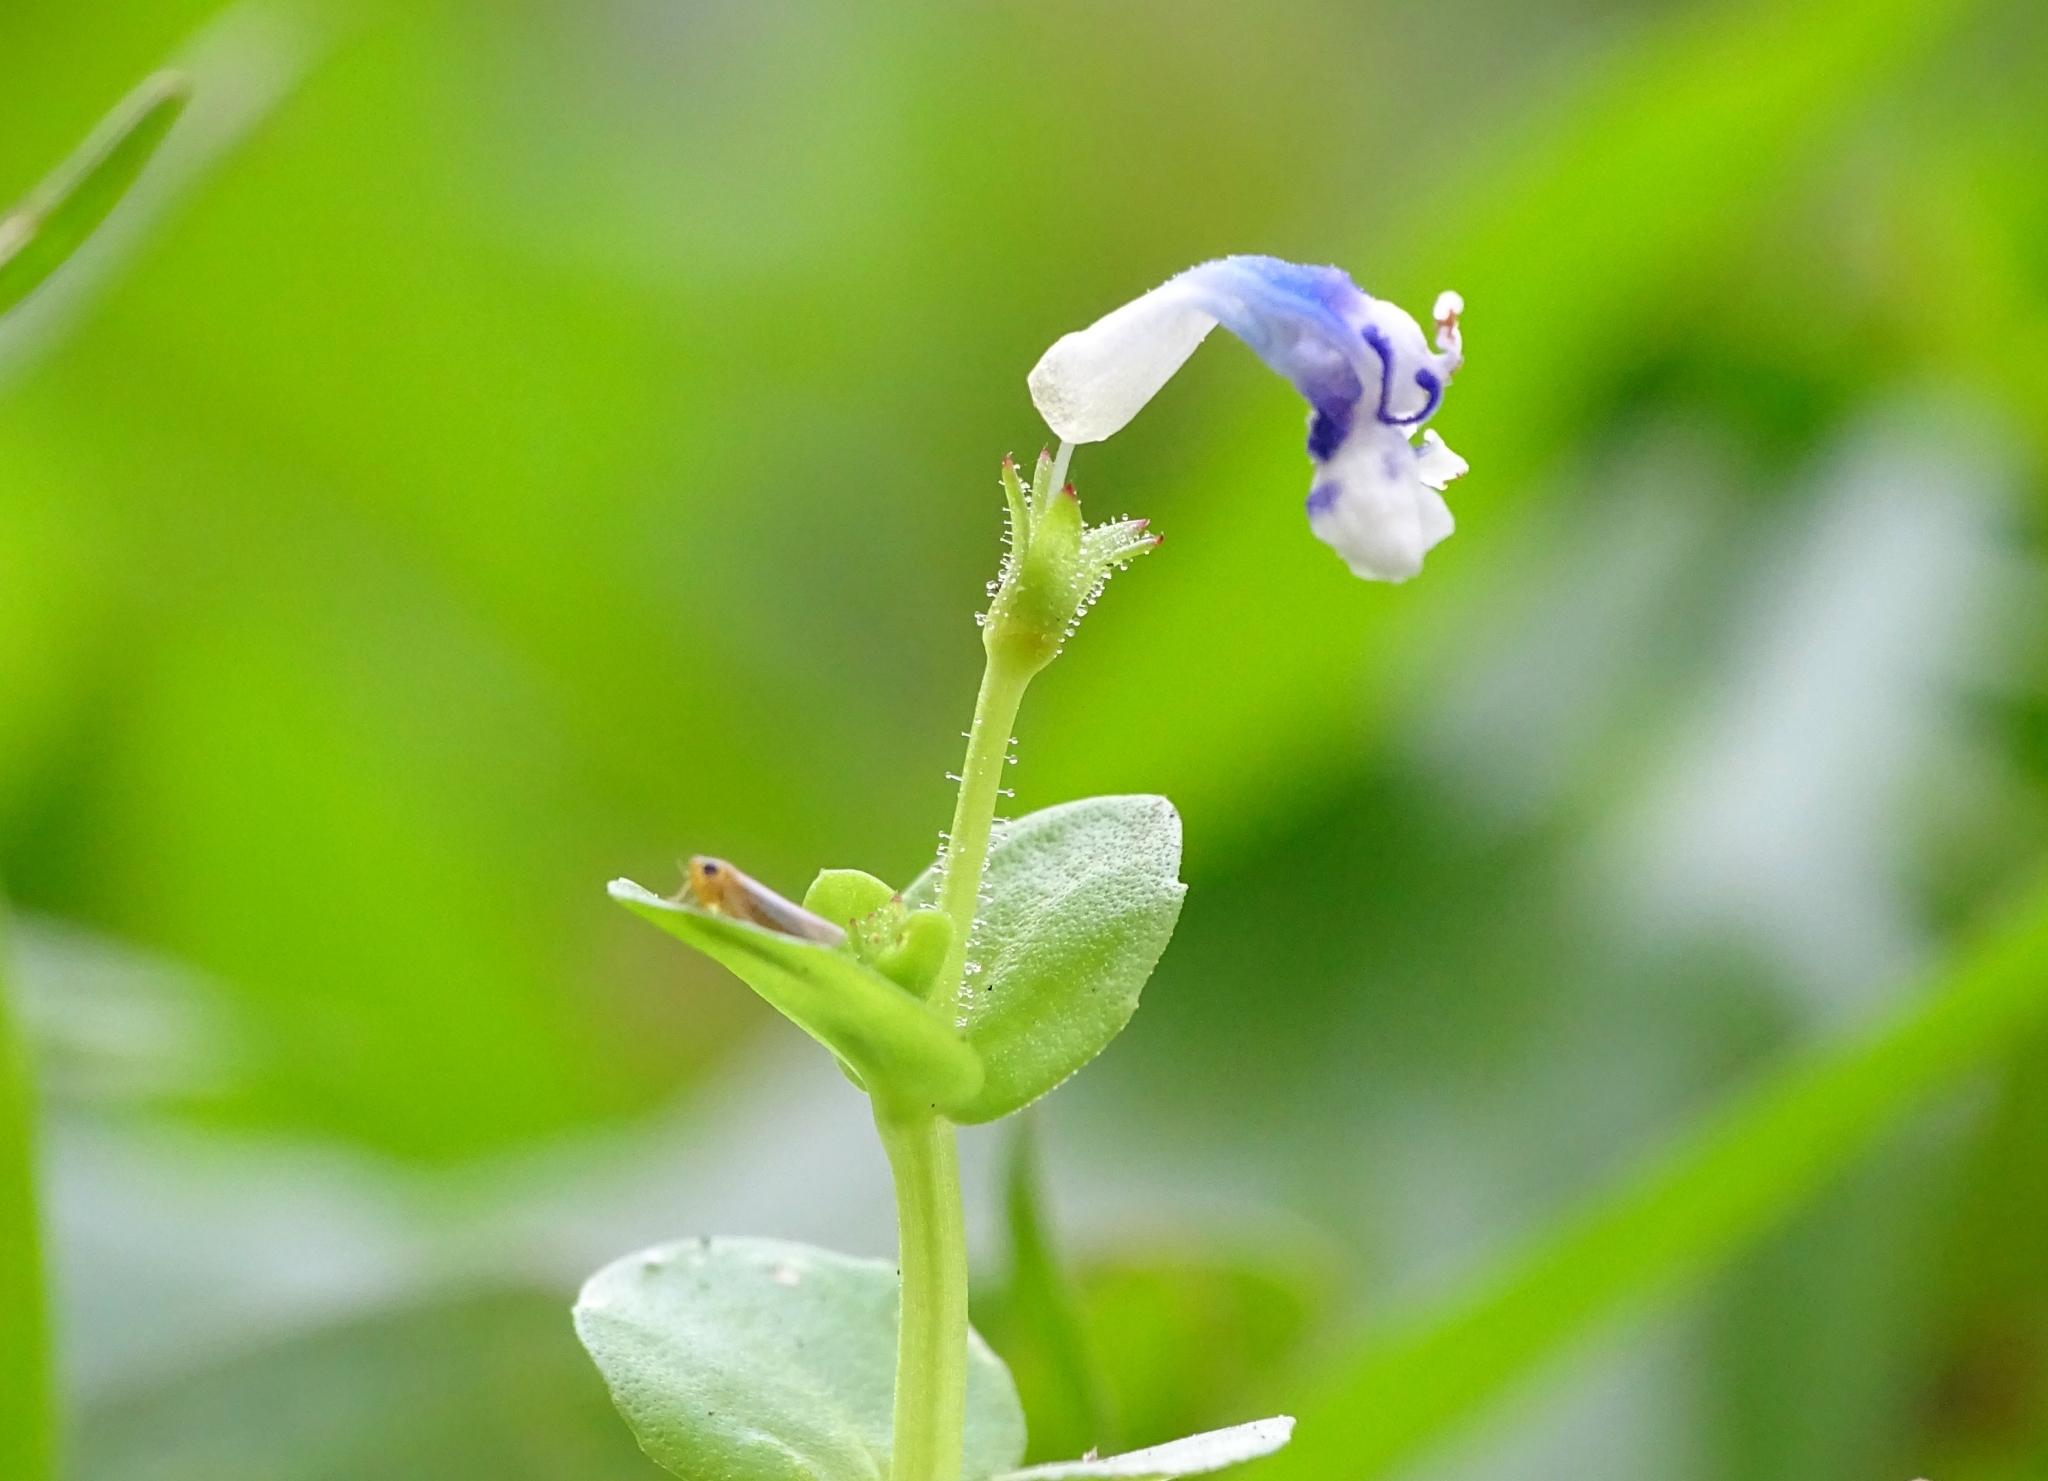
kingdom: Plantae
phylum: Tracheophyta
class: Magnoliopsida
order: Lamiales
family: Linderniaceae
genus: Lindernia
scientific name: Lindernia rotundifolia
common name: Baby’s tears
